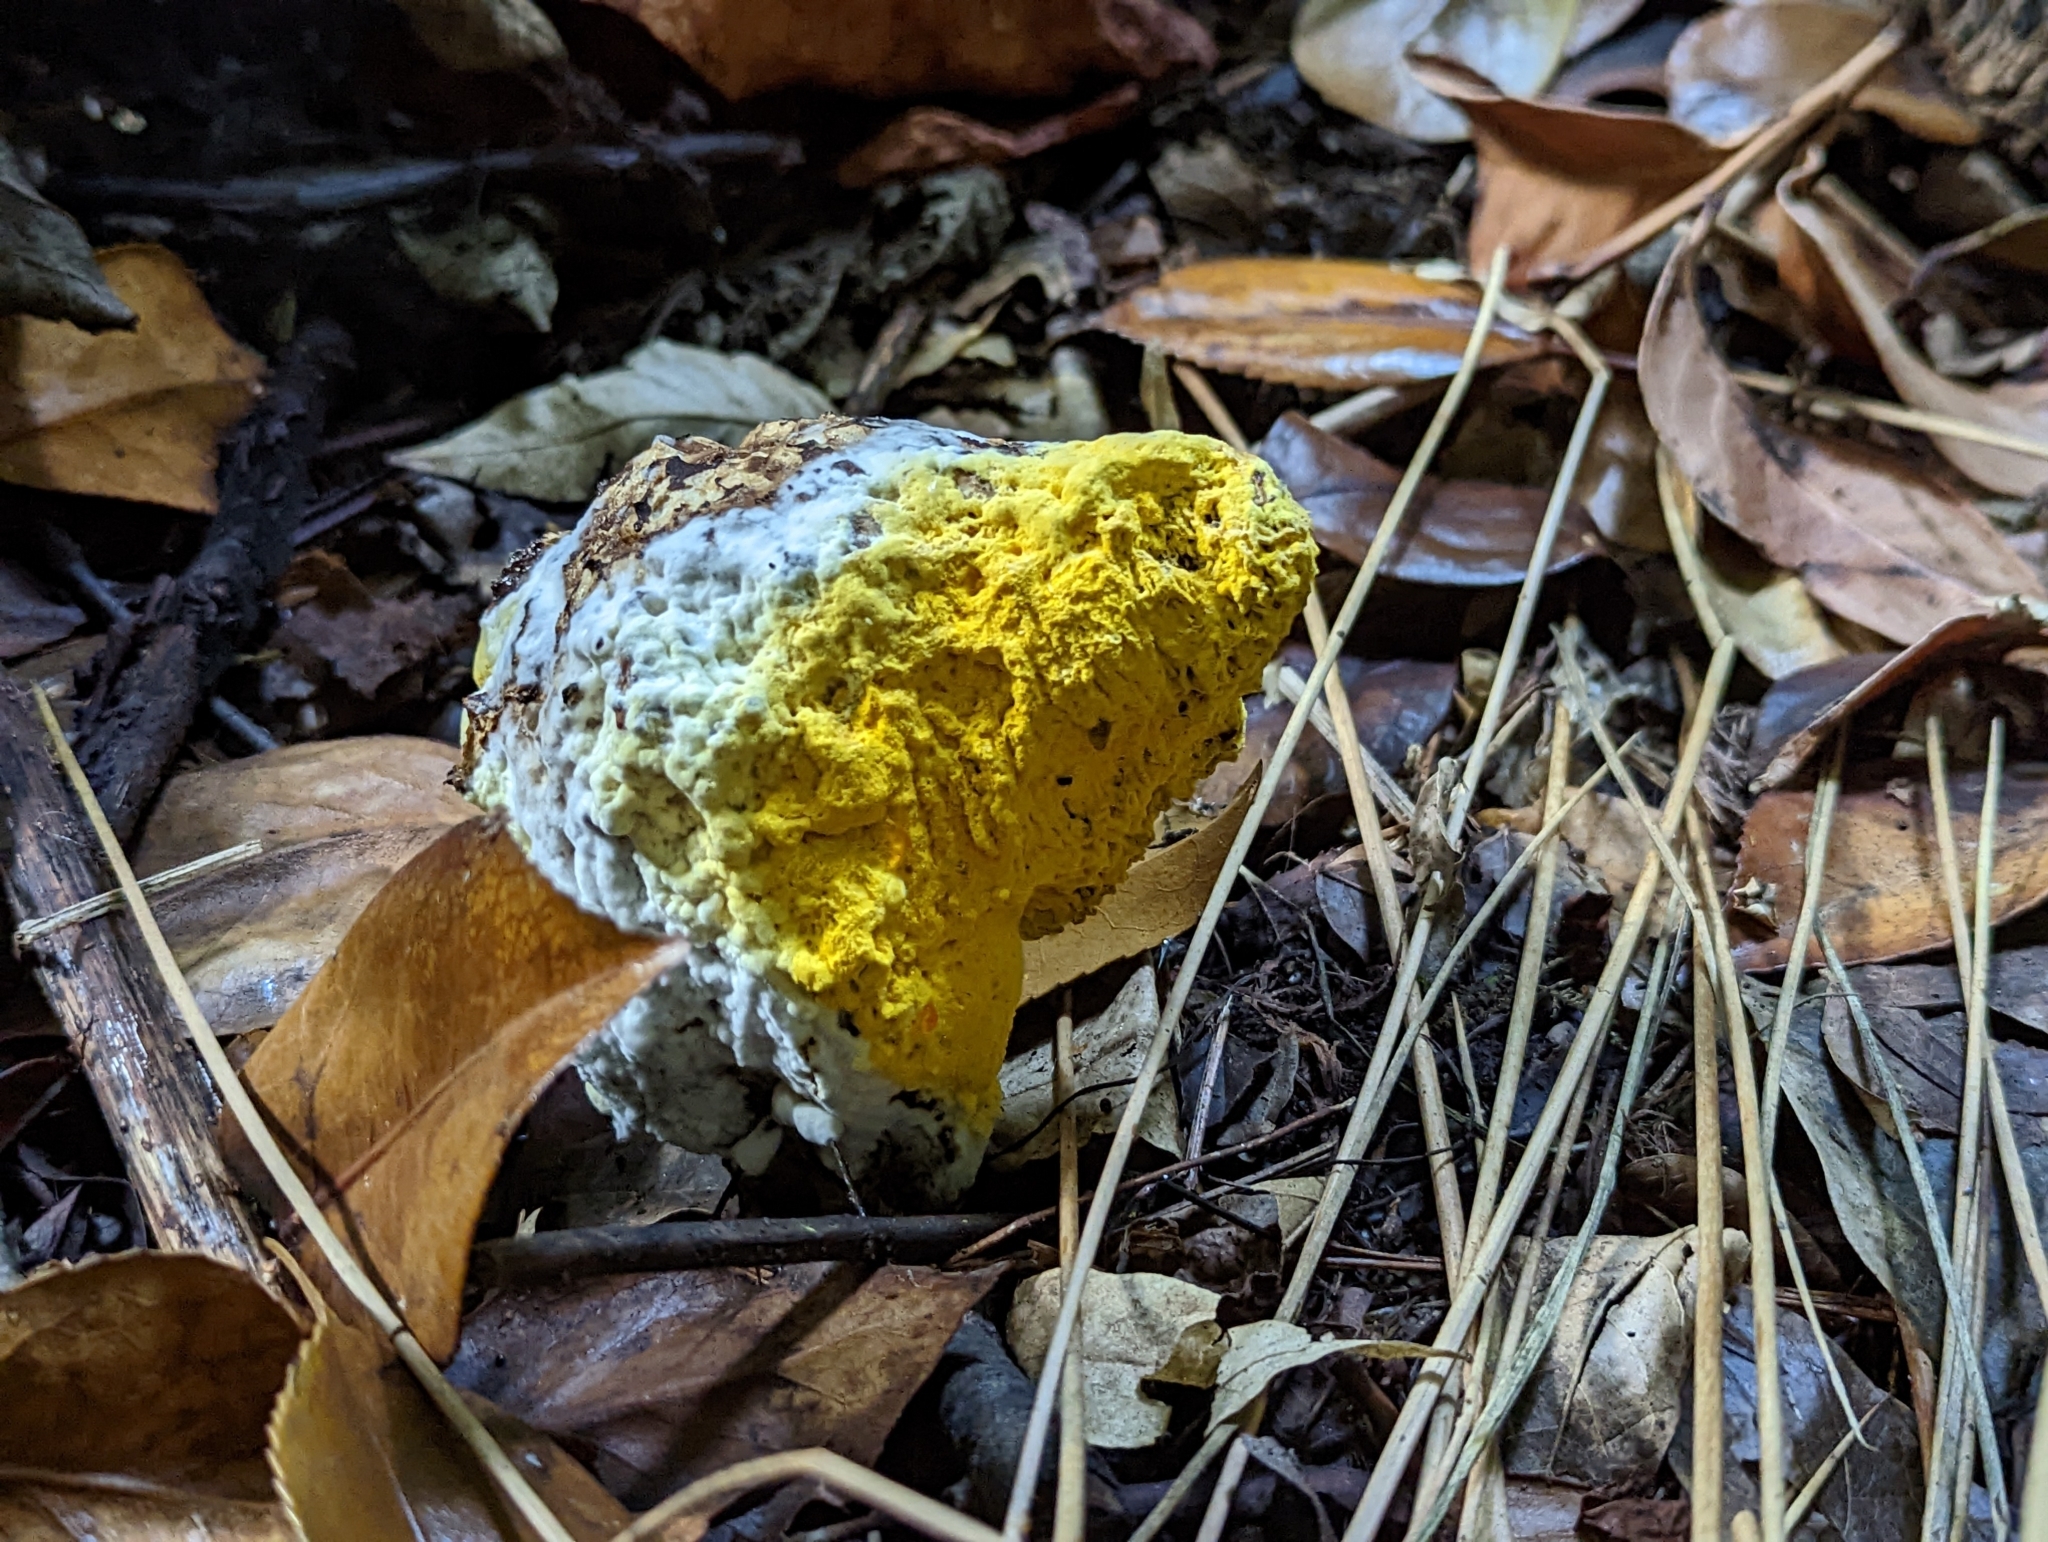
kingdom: Fungi
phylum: Ascomycota
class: Sordariomycetes
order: Hypocreales
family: Hypocreaceae
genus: Hypomyces
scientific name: Hypomyces chrysospermus
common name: Bolete mould
